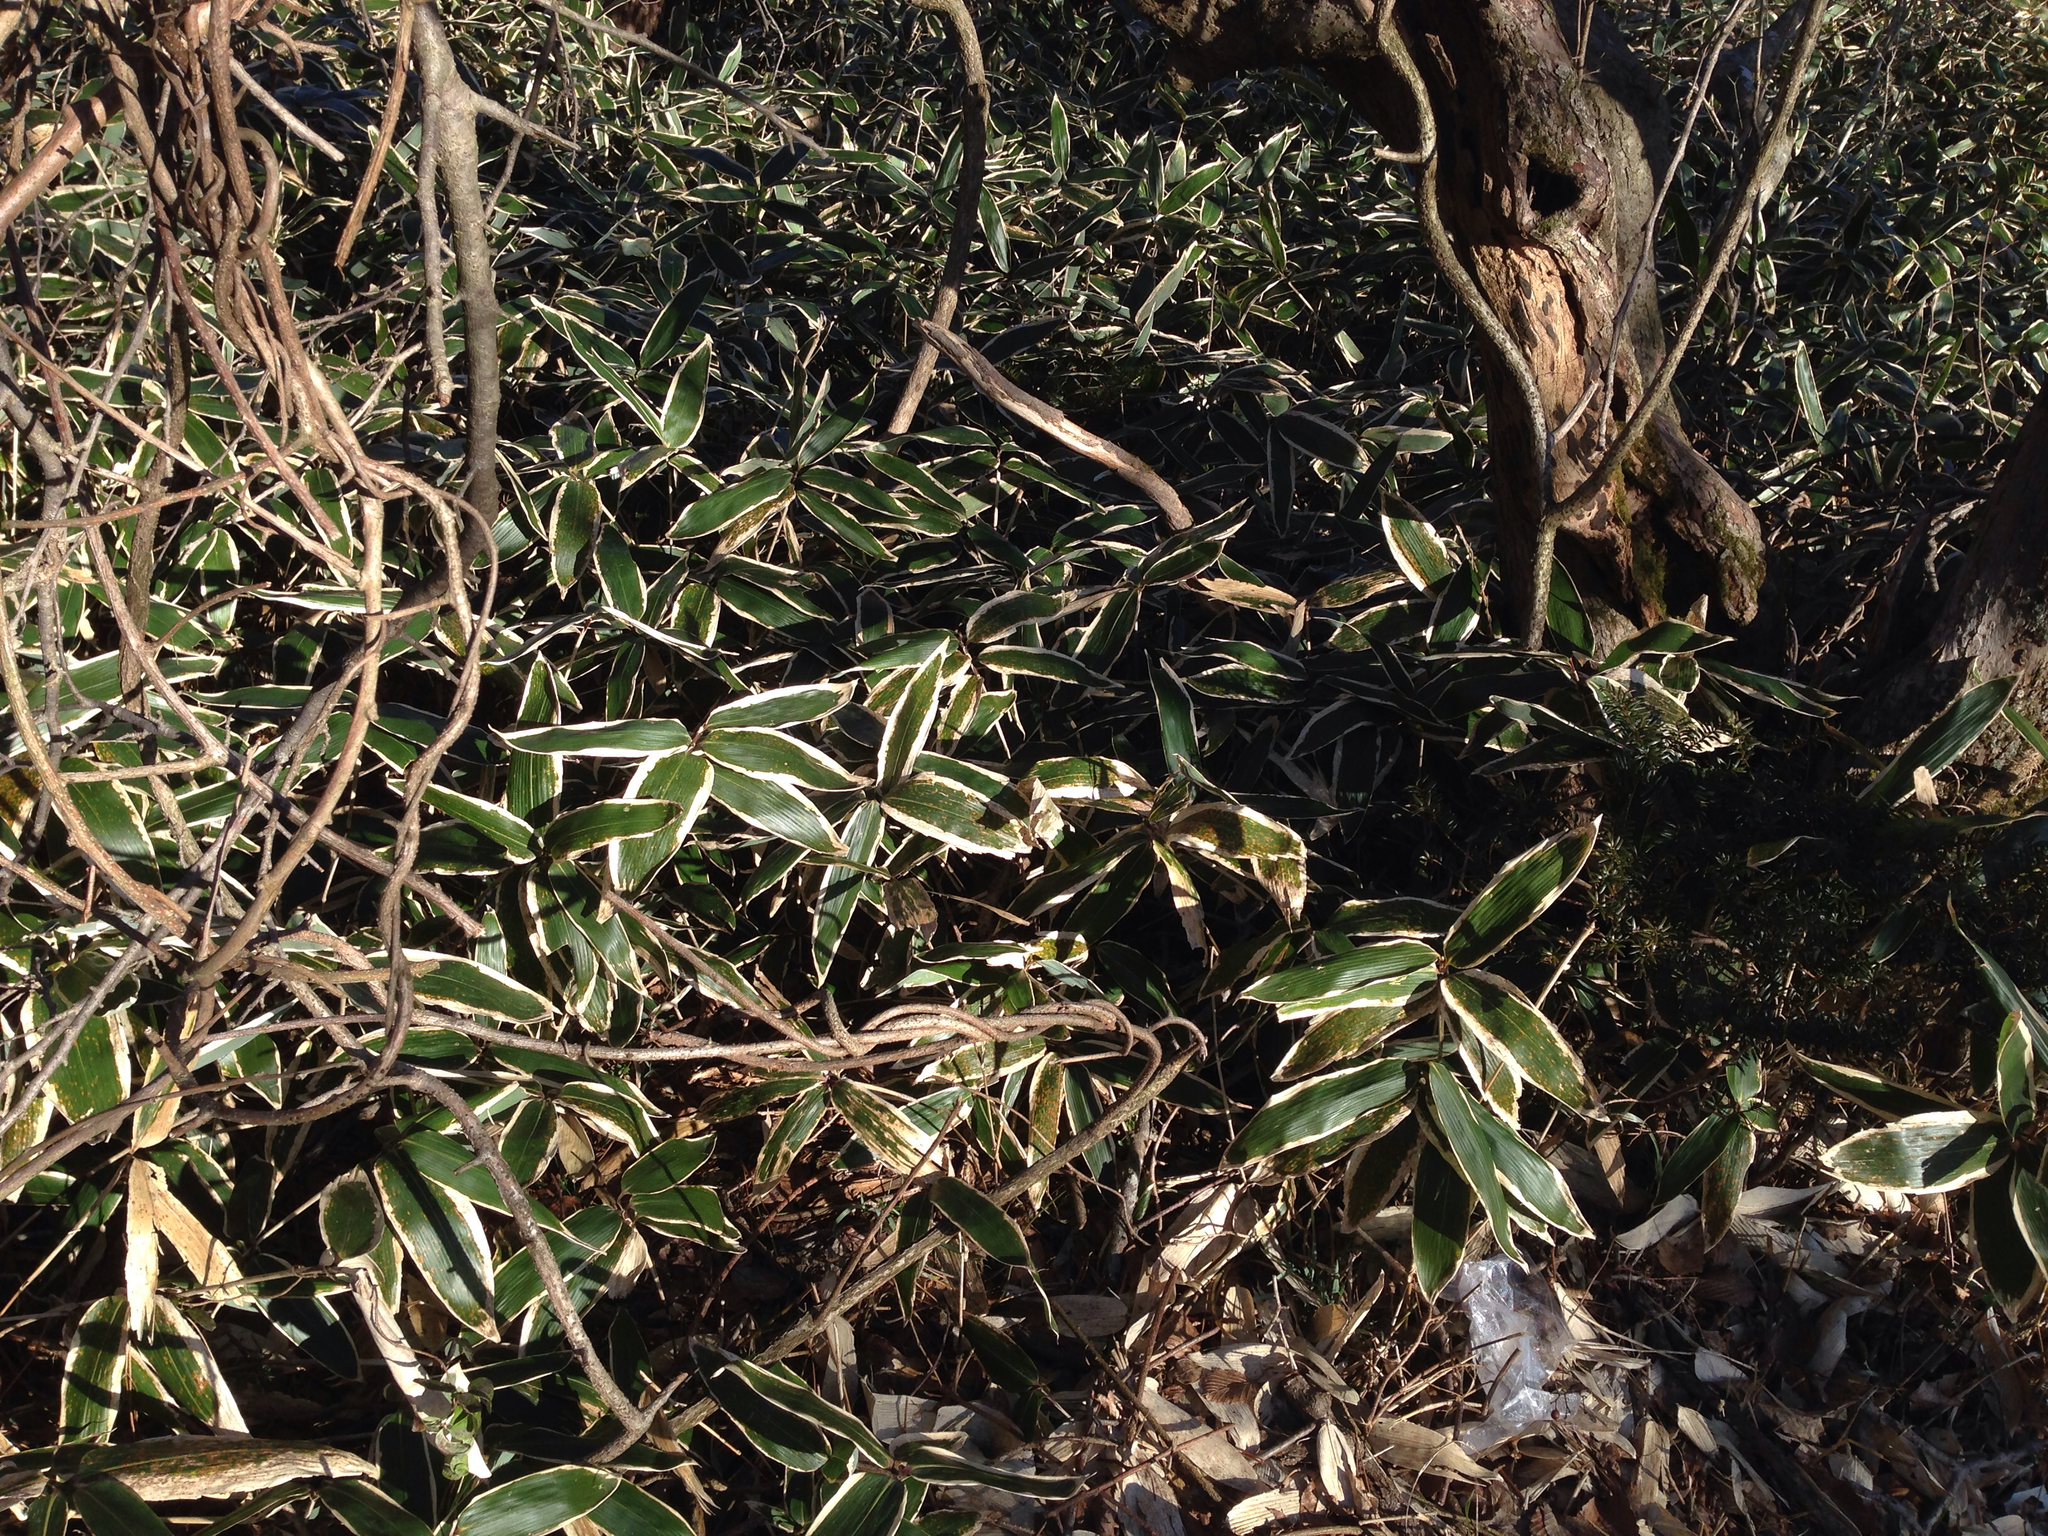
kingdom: Plantae
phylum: Tracheophyta
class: Liliopsida
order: Poales
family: Poaceae
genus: Sasa
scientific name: Sasa veitchii
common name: Veitch's bamboo
